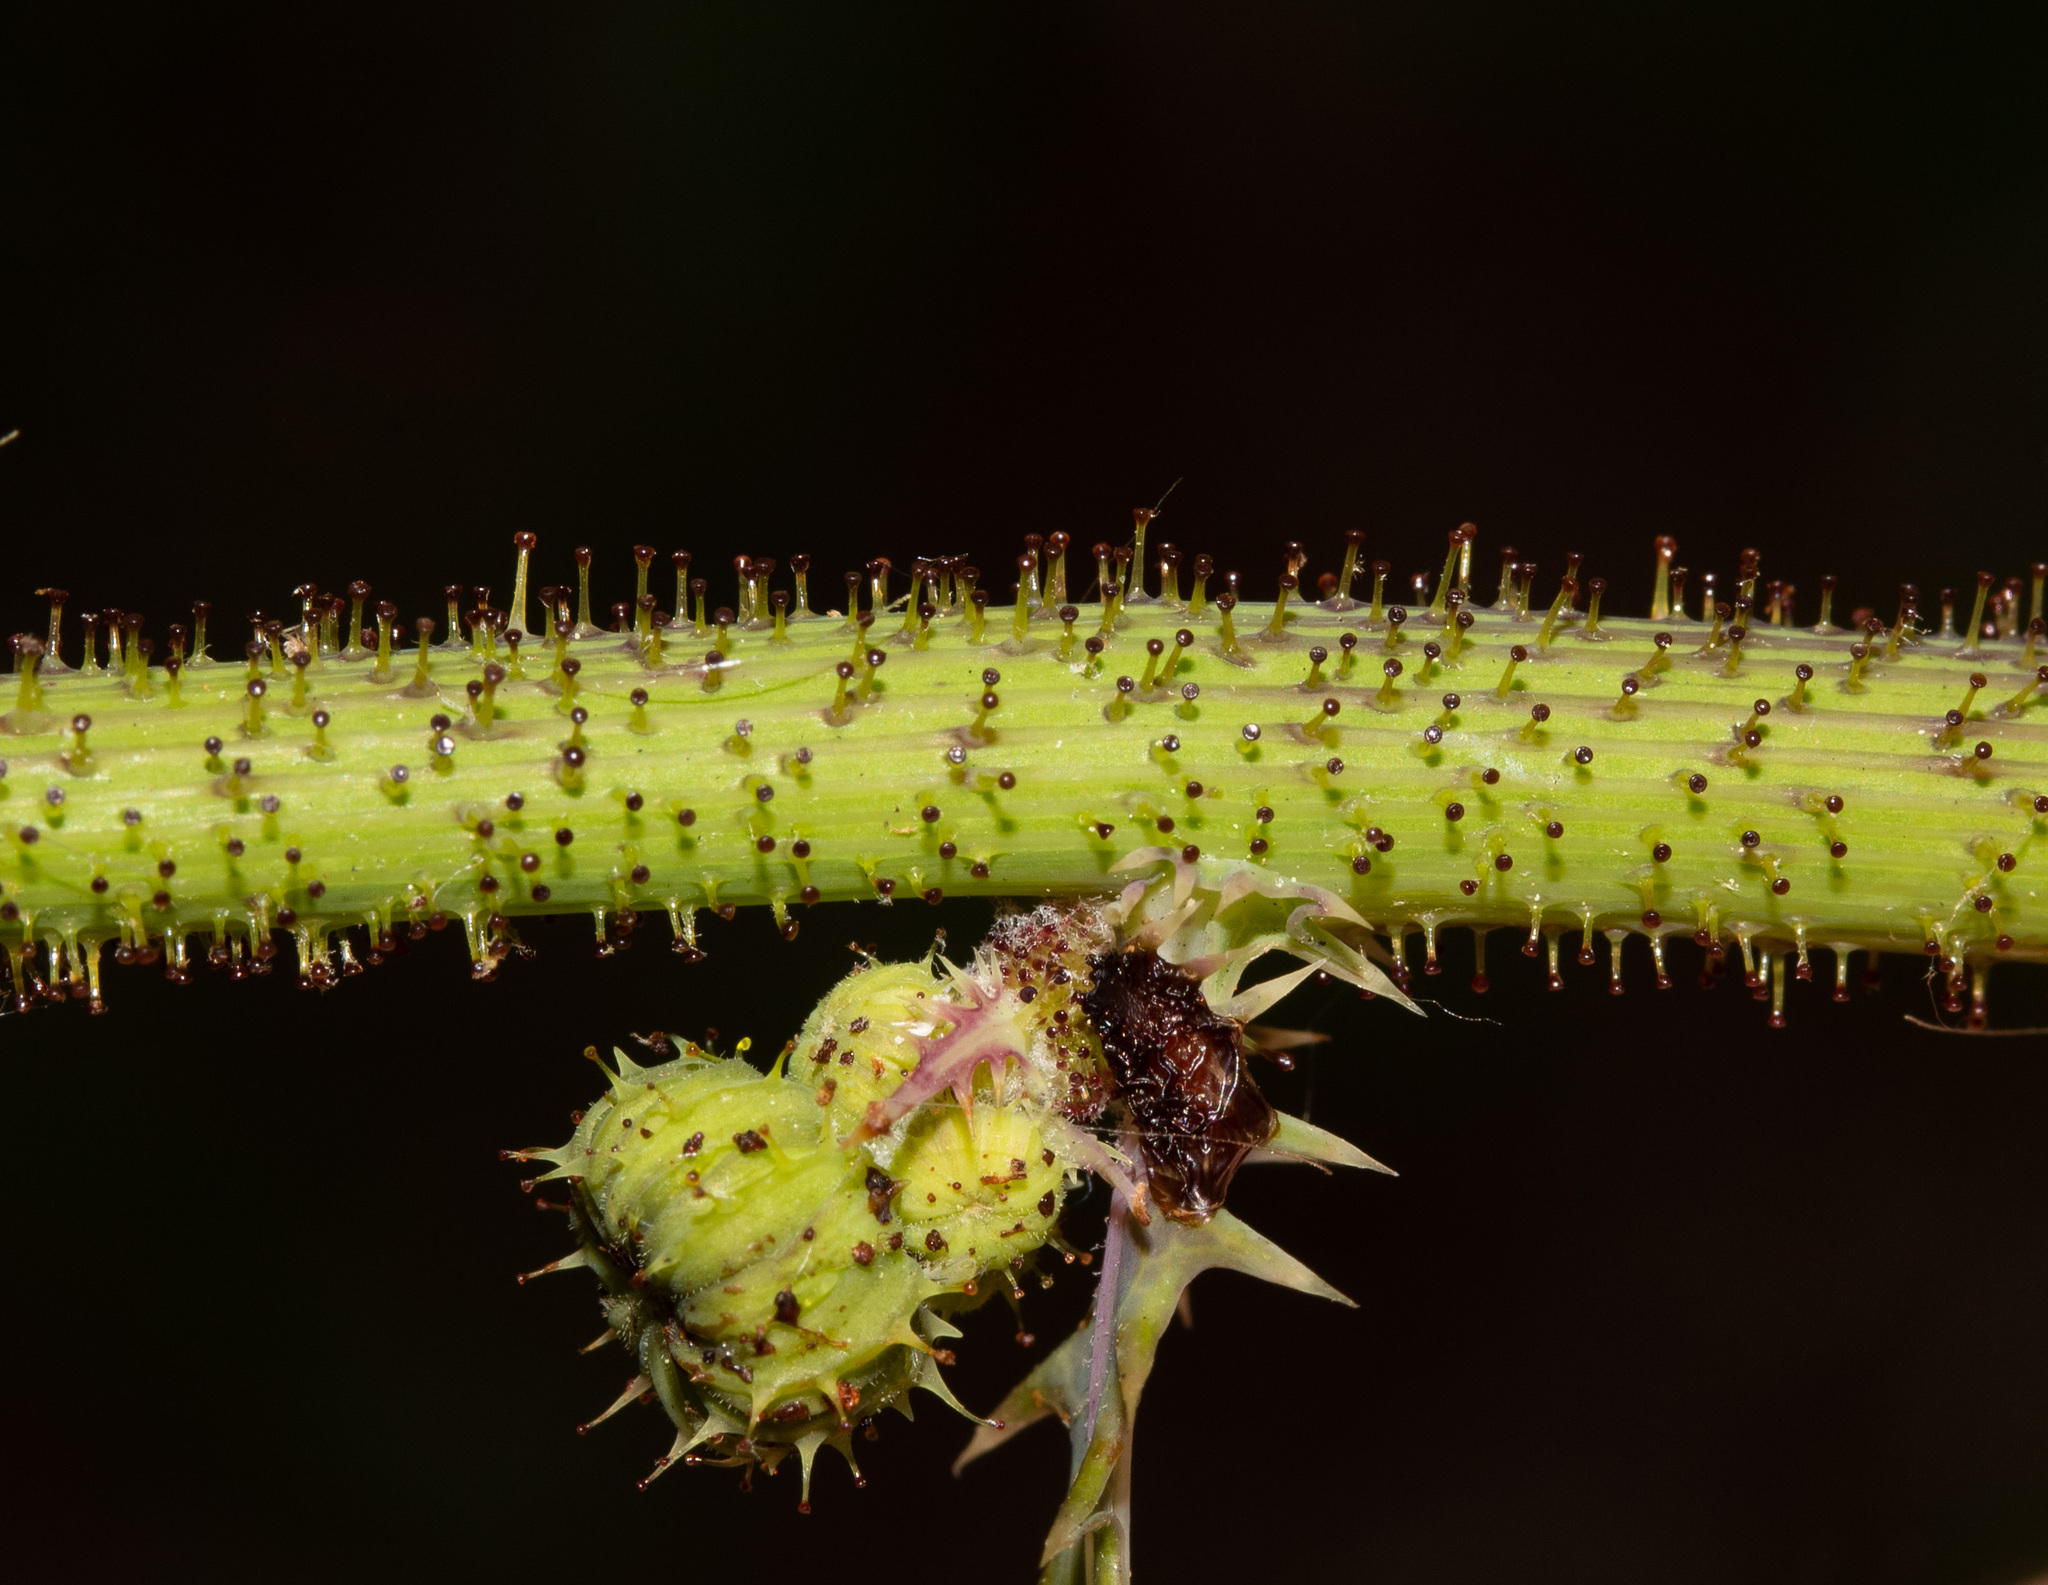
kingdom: Plantae
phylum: Tracheophyta
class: Magnoliopsida
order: Asterales
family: Asteraceae
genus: Sonchus
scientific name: Sonchus asper
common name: Prickly sow-thistle
